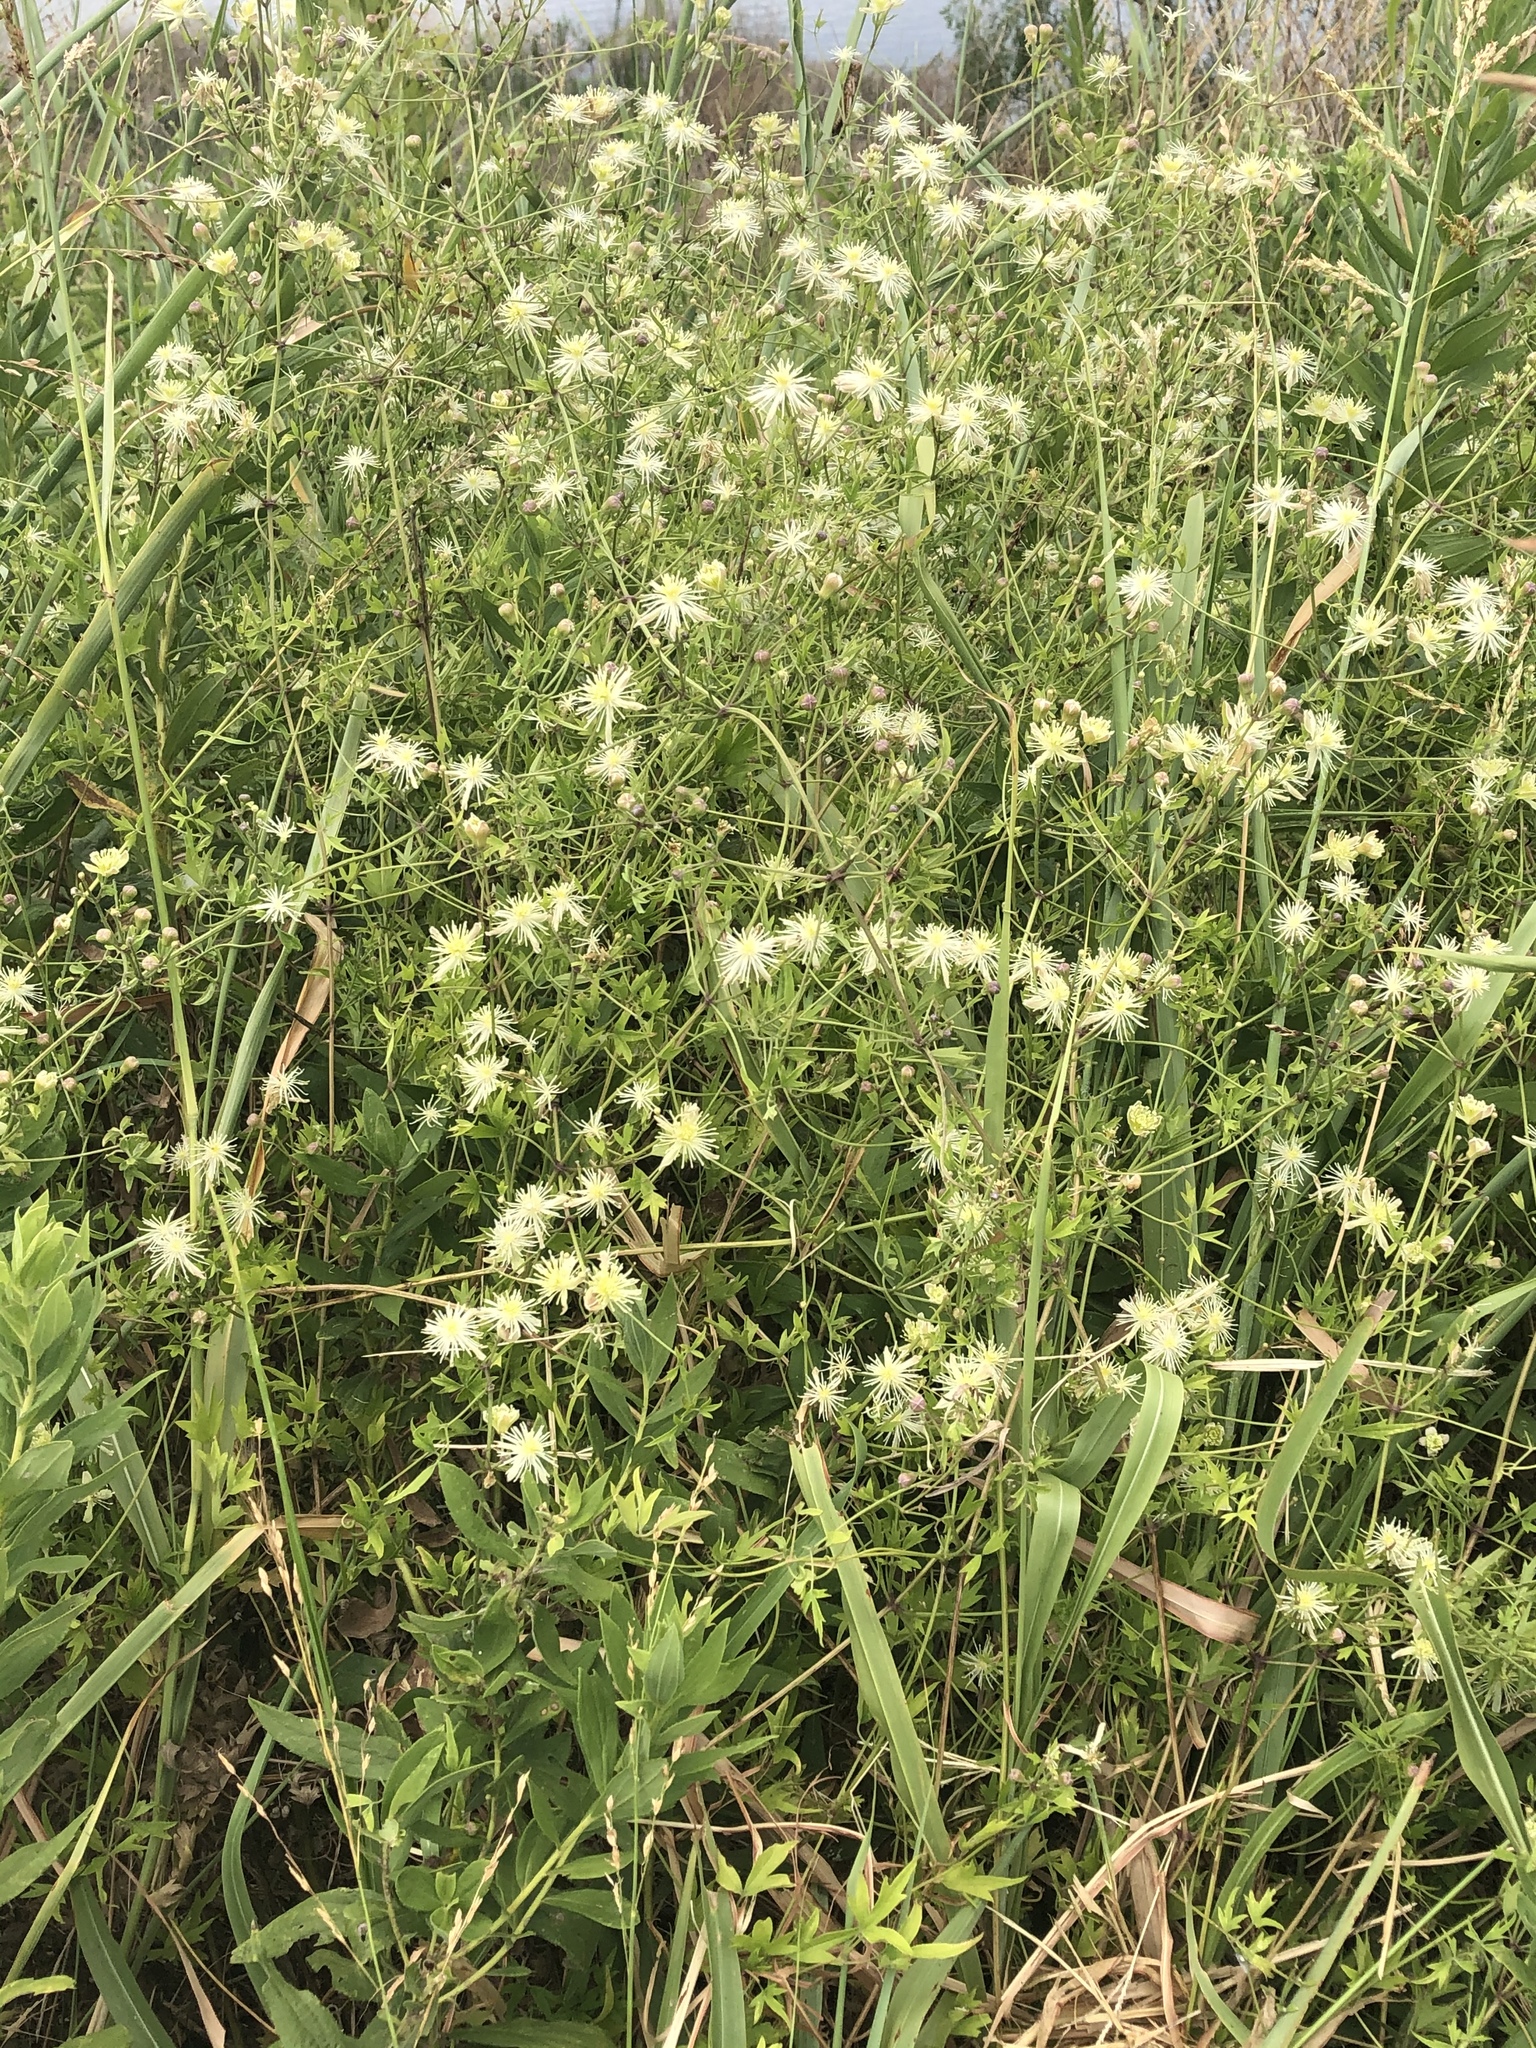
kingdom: Plantae
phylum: Tracheophyta
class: Magnoliopsida
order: Ranunculales
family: Ranunculaceae
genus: Clematis
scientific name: Clematis drummondii
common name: Texas virgin's bower
